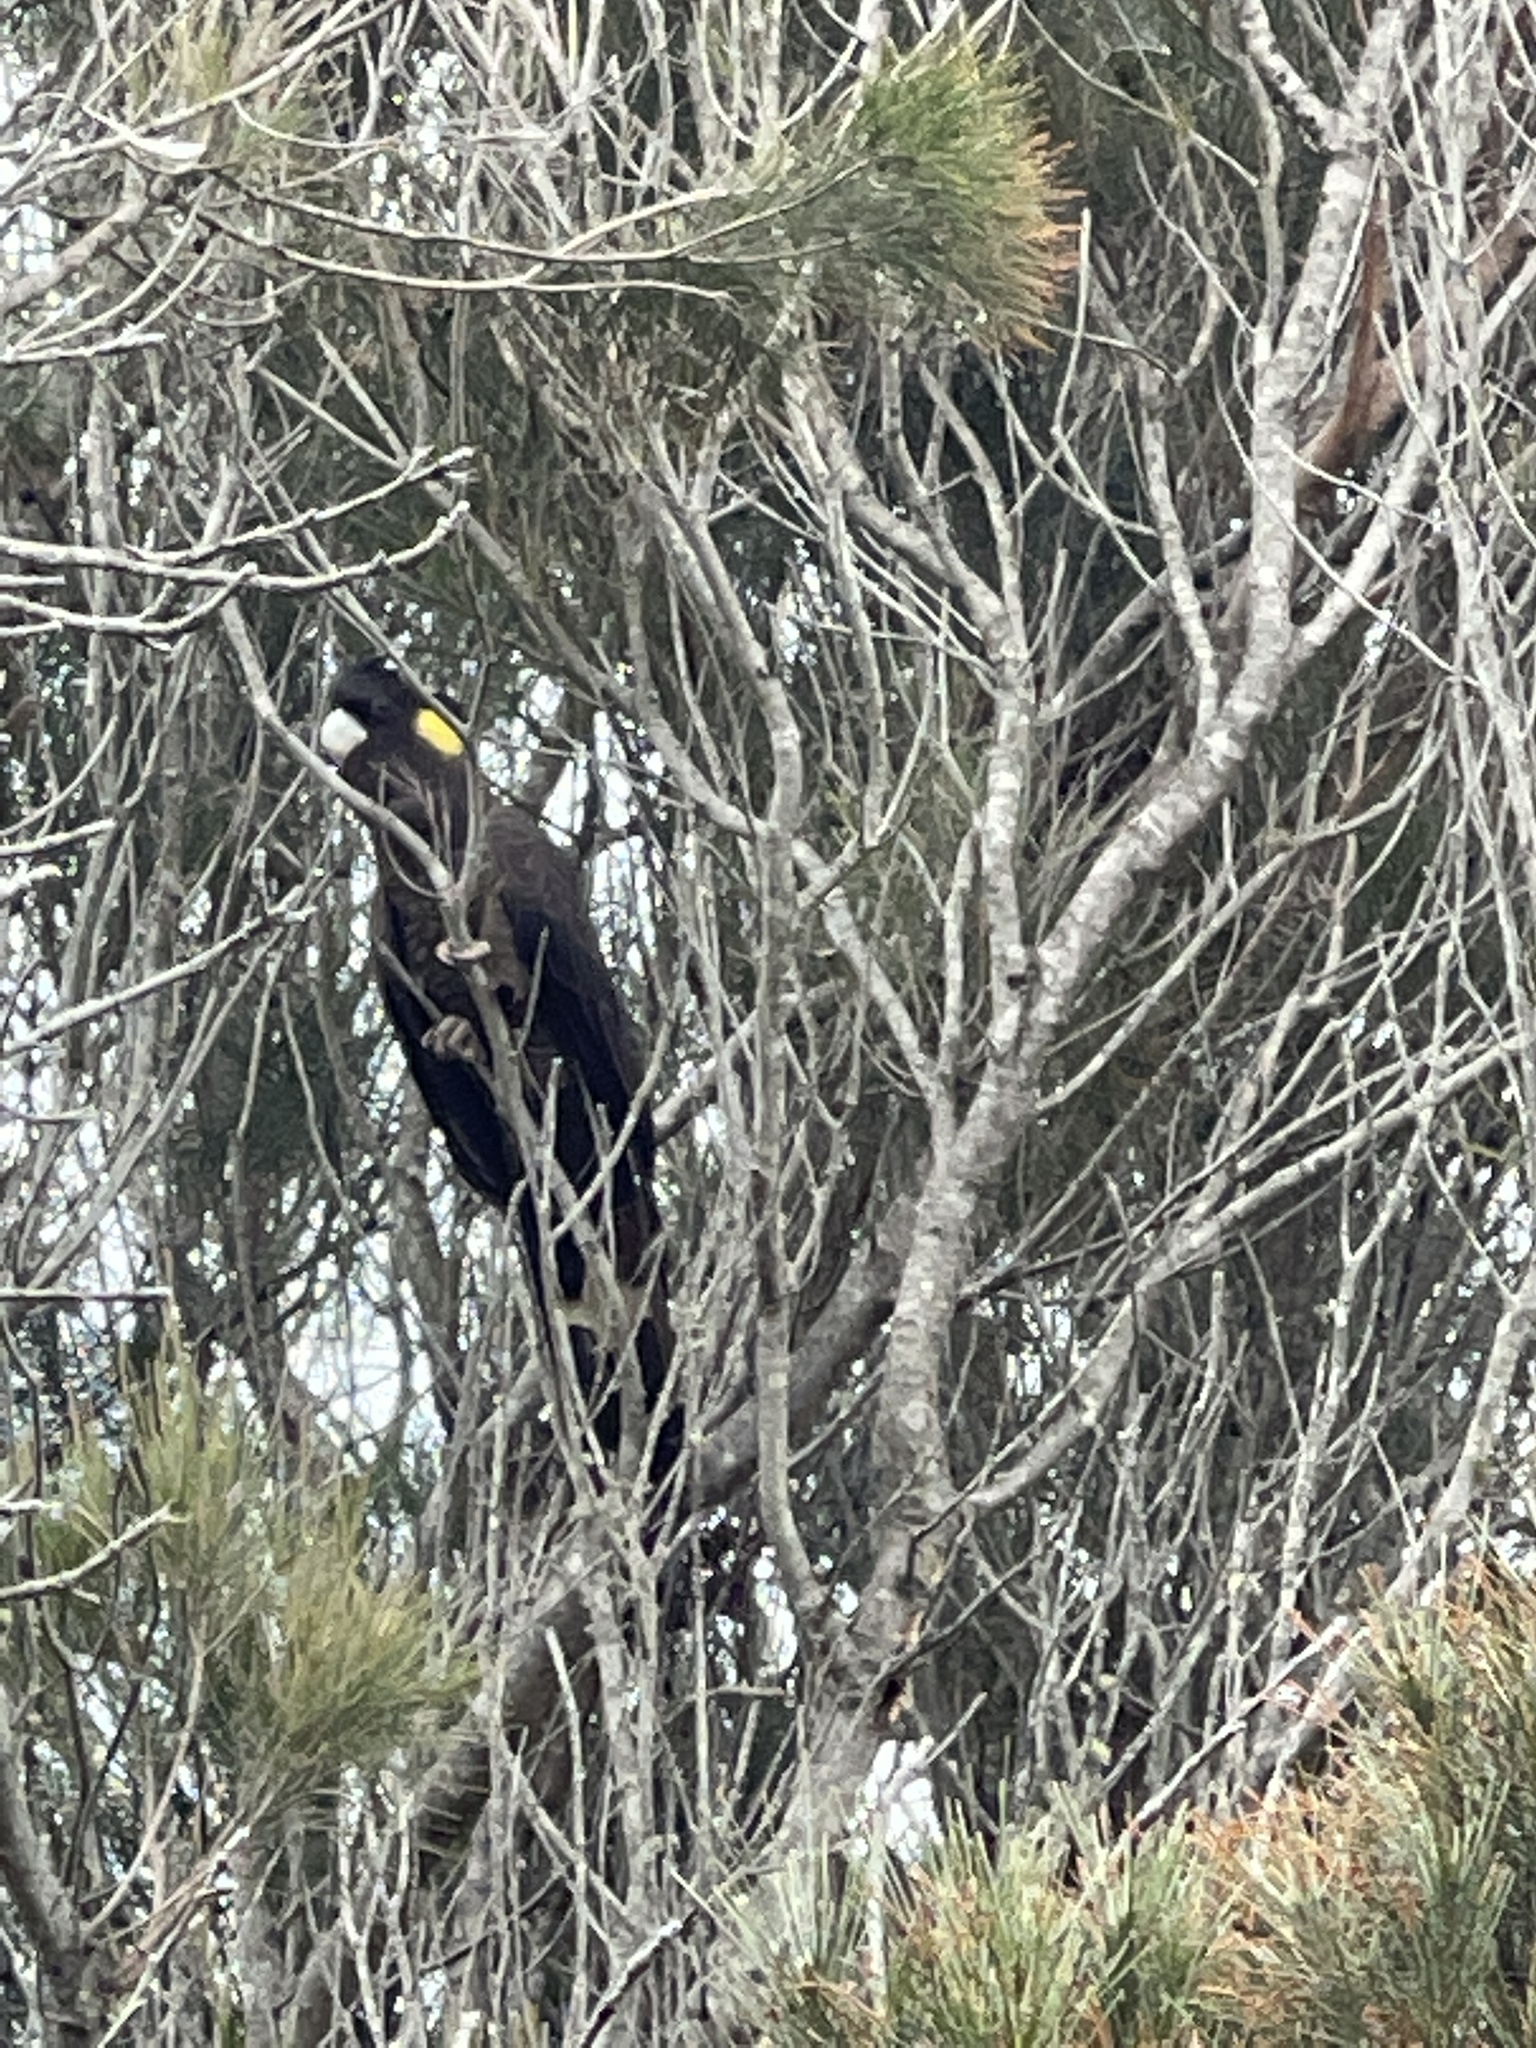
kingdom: Animalia
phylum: Chordata
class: Aves
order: Psittaciformes
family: Cacatuidae
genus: Zanda
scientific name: Zanda funerea
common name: Yellow-tailed black-cockatoo
